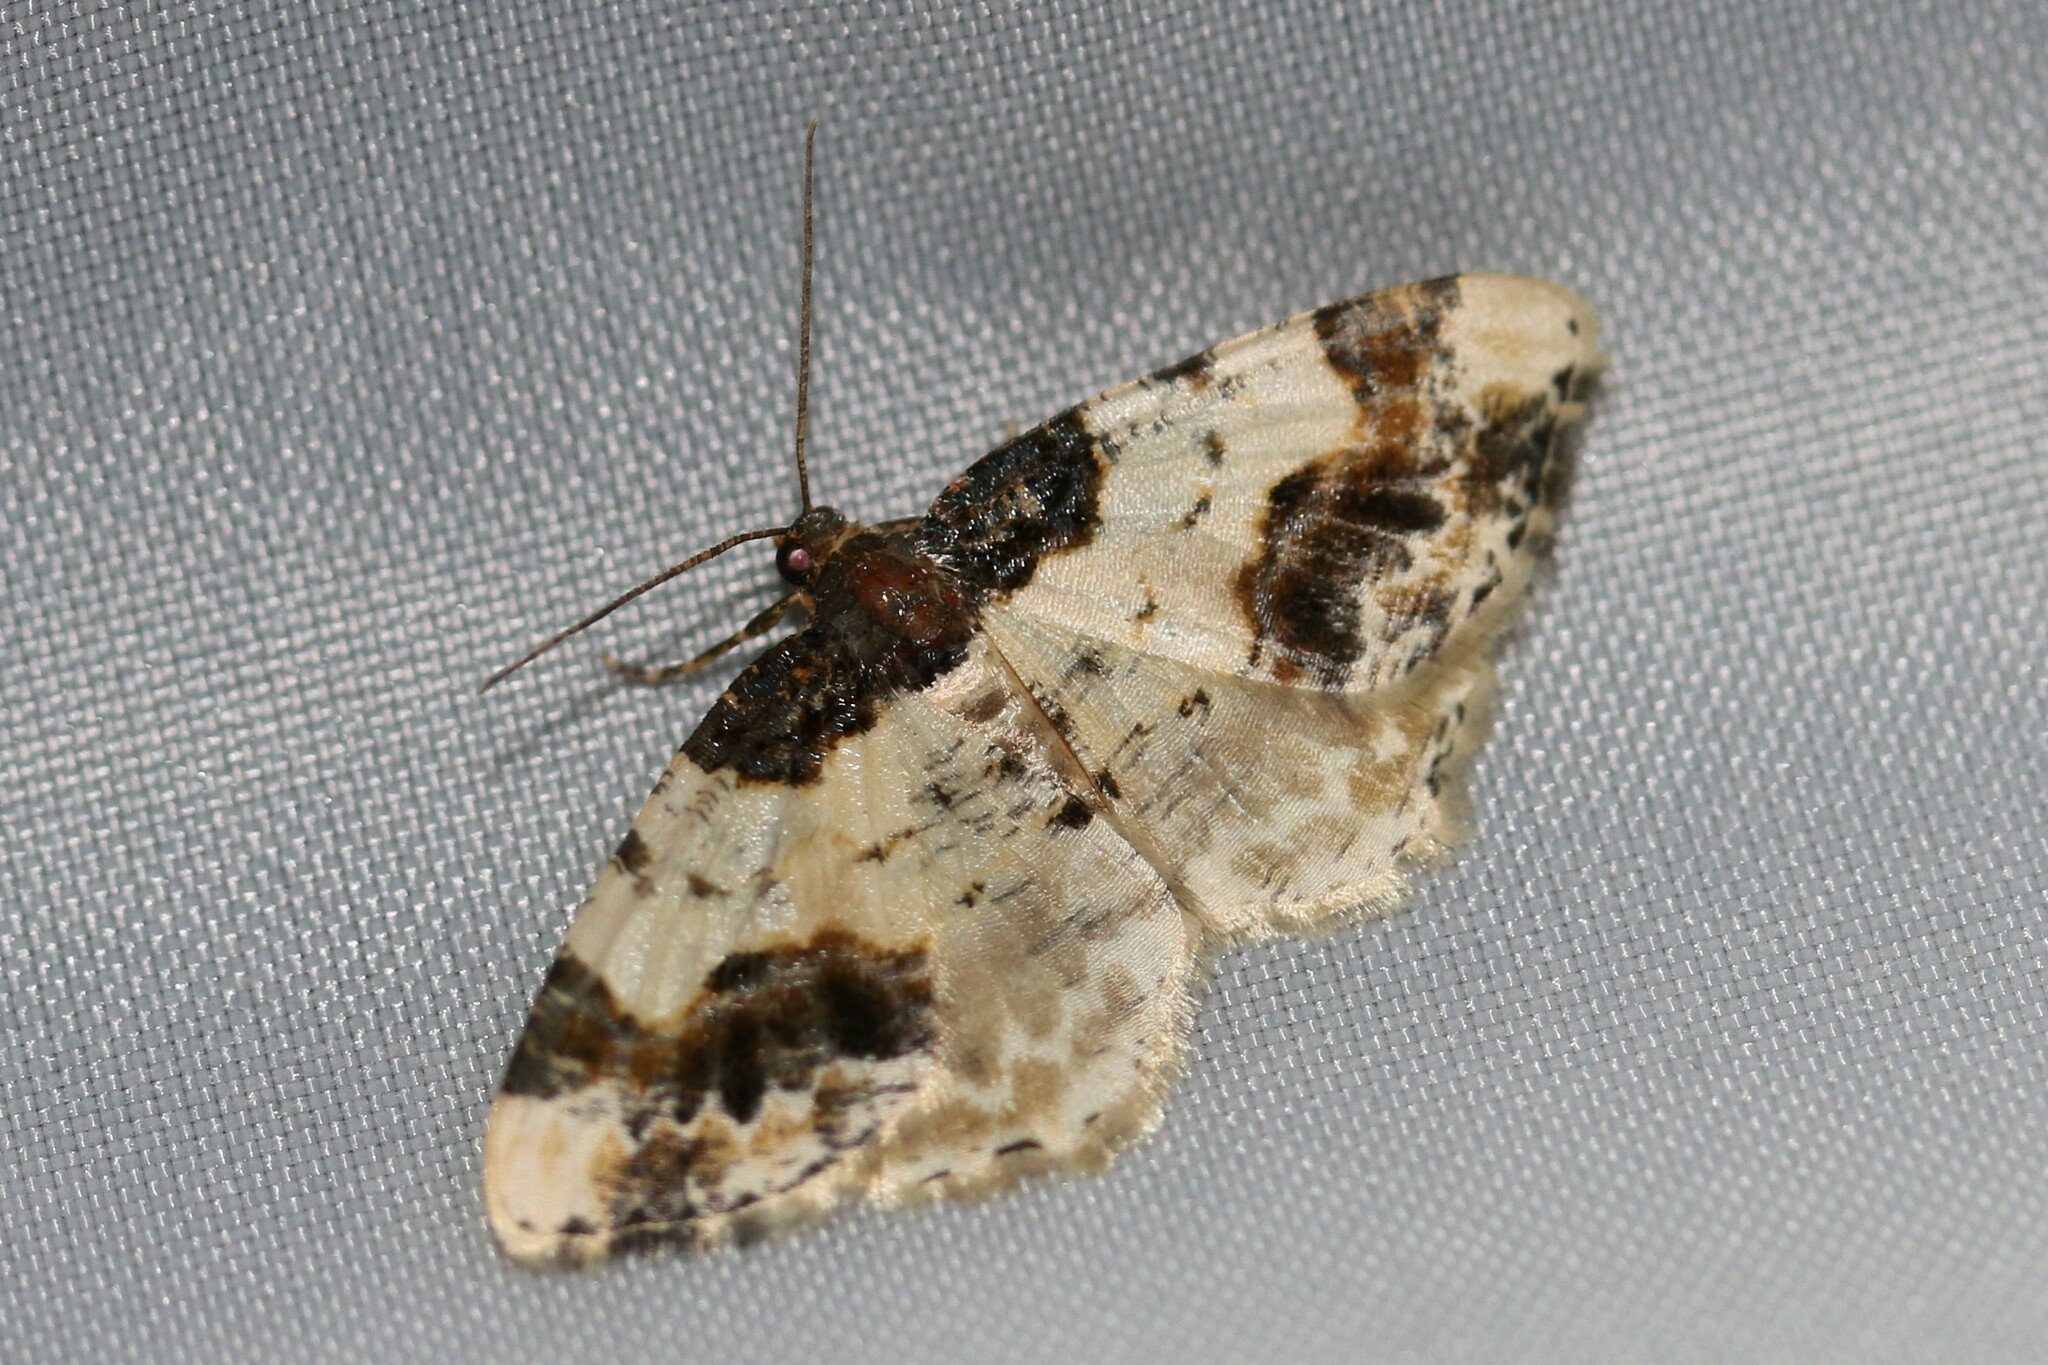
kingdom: Animalia
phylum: Arthropoda
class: Insecta
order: Lepidoptera
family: Geometridae
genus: Ligdia
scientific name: Ligdia adustata
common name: Scorched carpet
